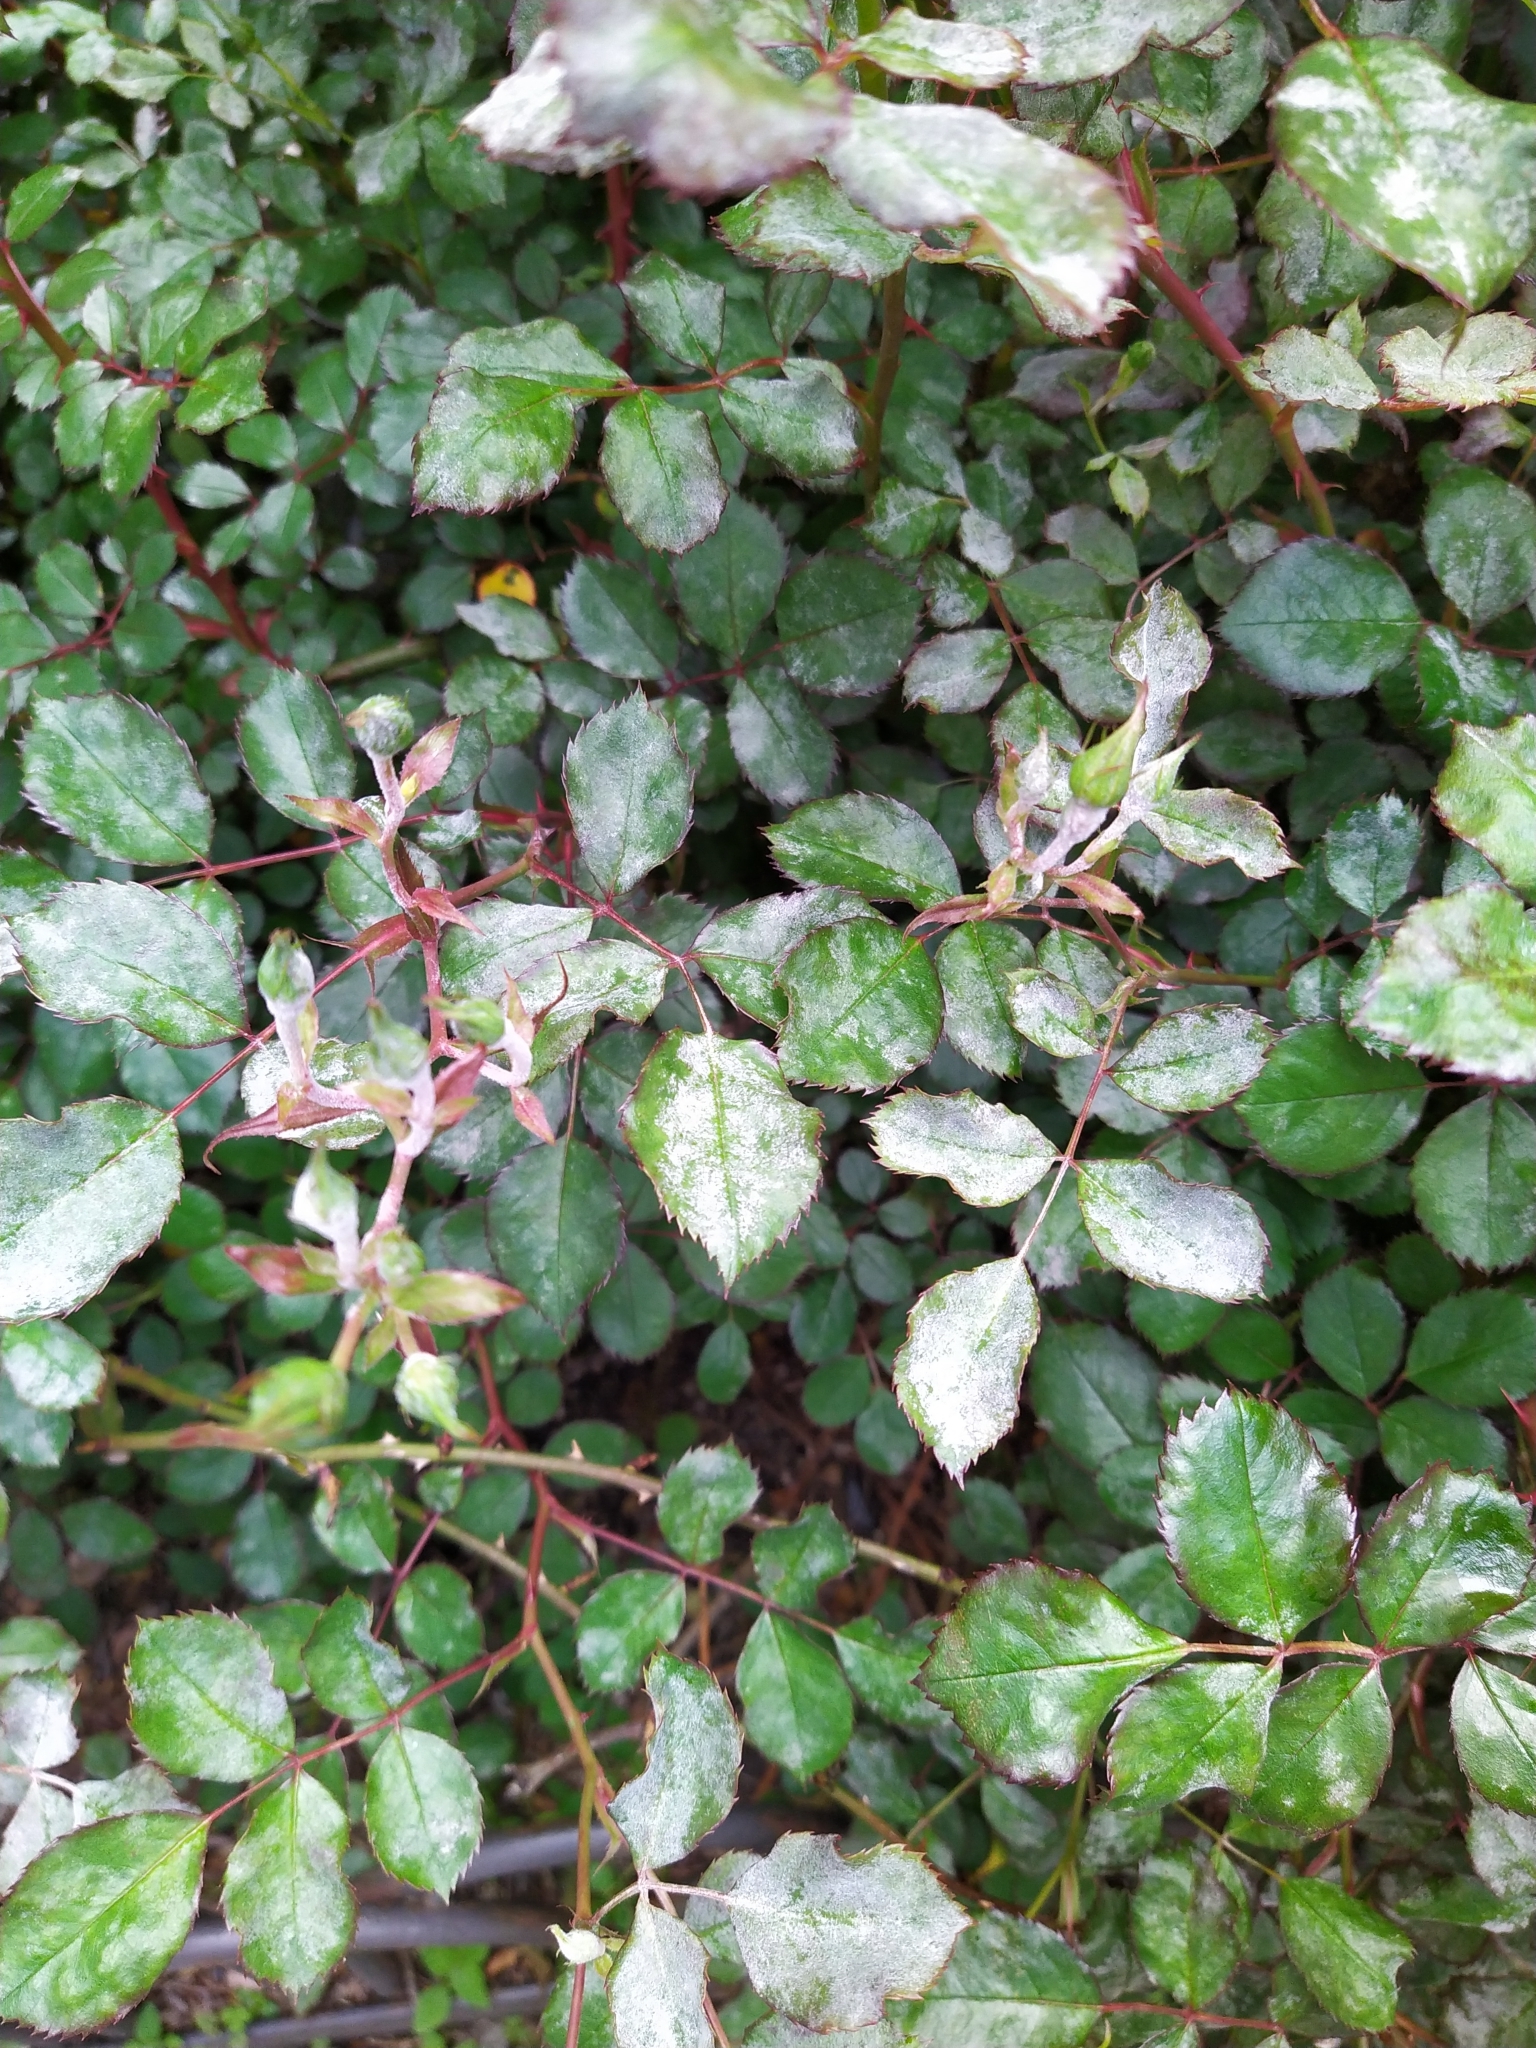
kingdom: Fungi
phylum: Ascomycota
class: Leotiomycetes
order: Helotiales
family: Erysiphaceae
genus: Podosphaera
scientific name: Podosphaera pannosa
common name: Rose mildew
